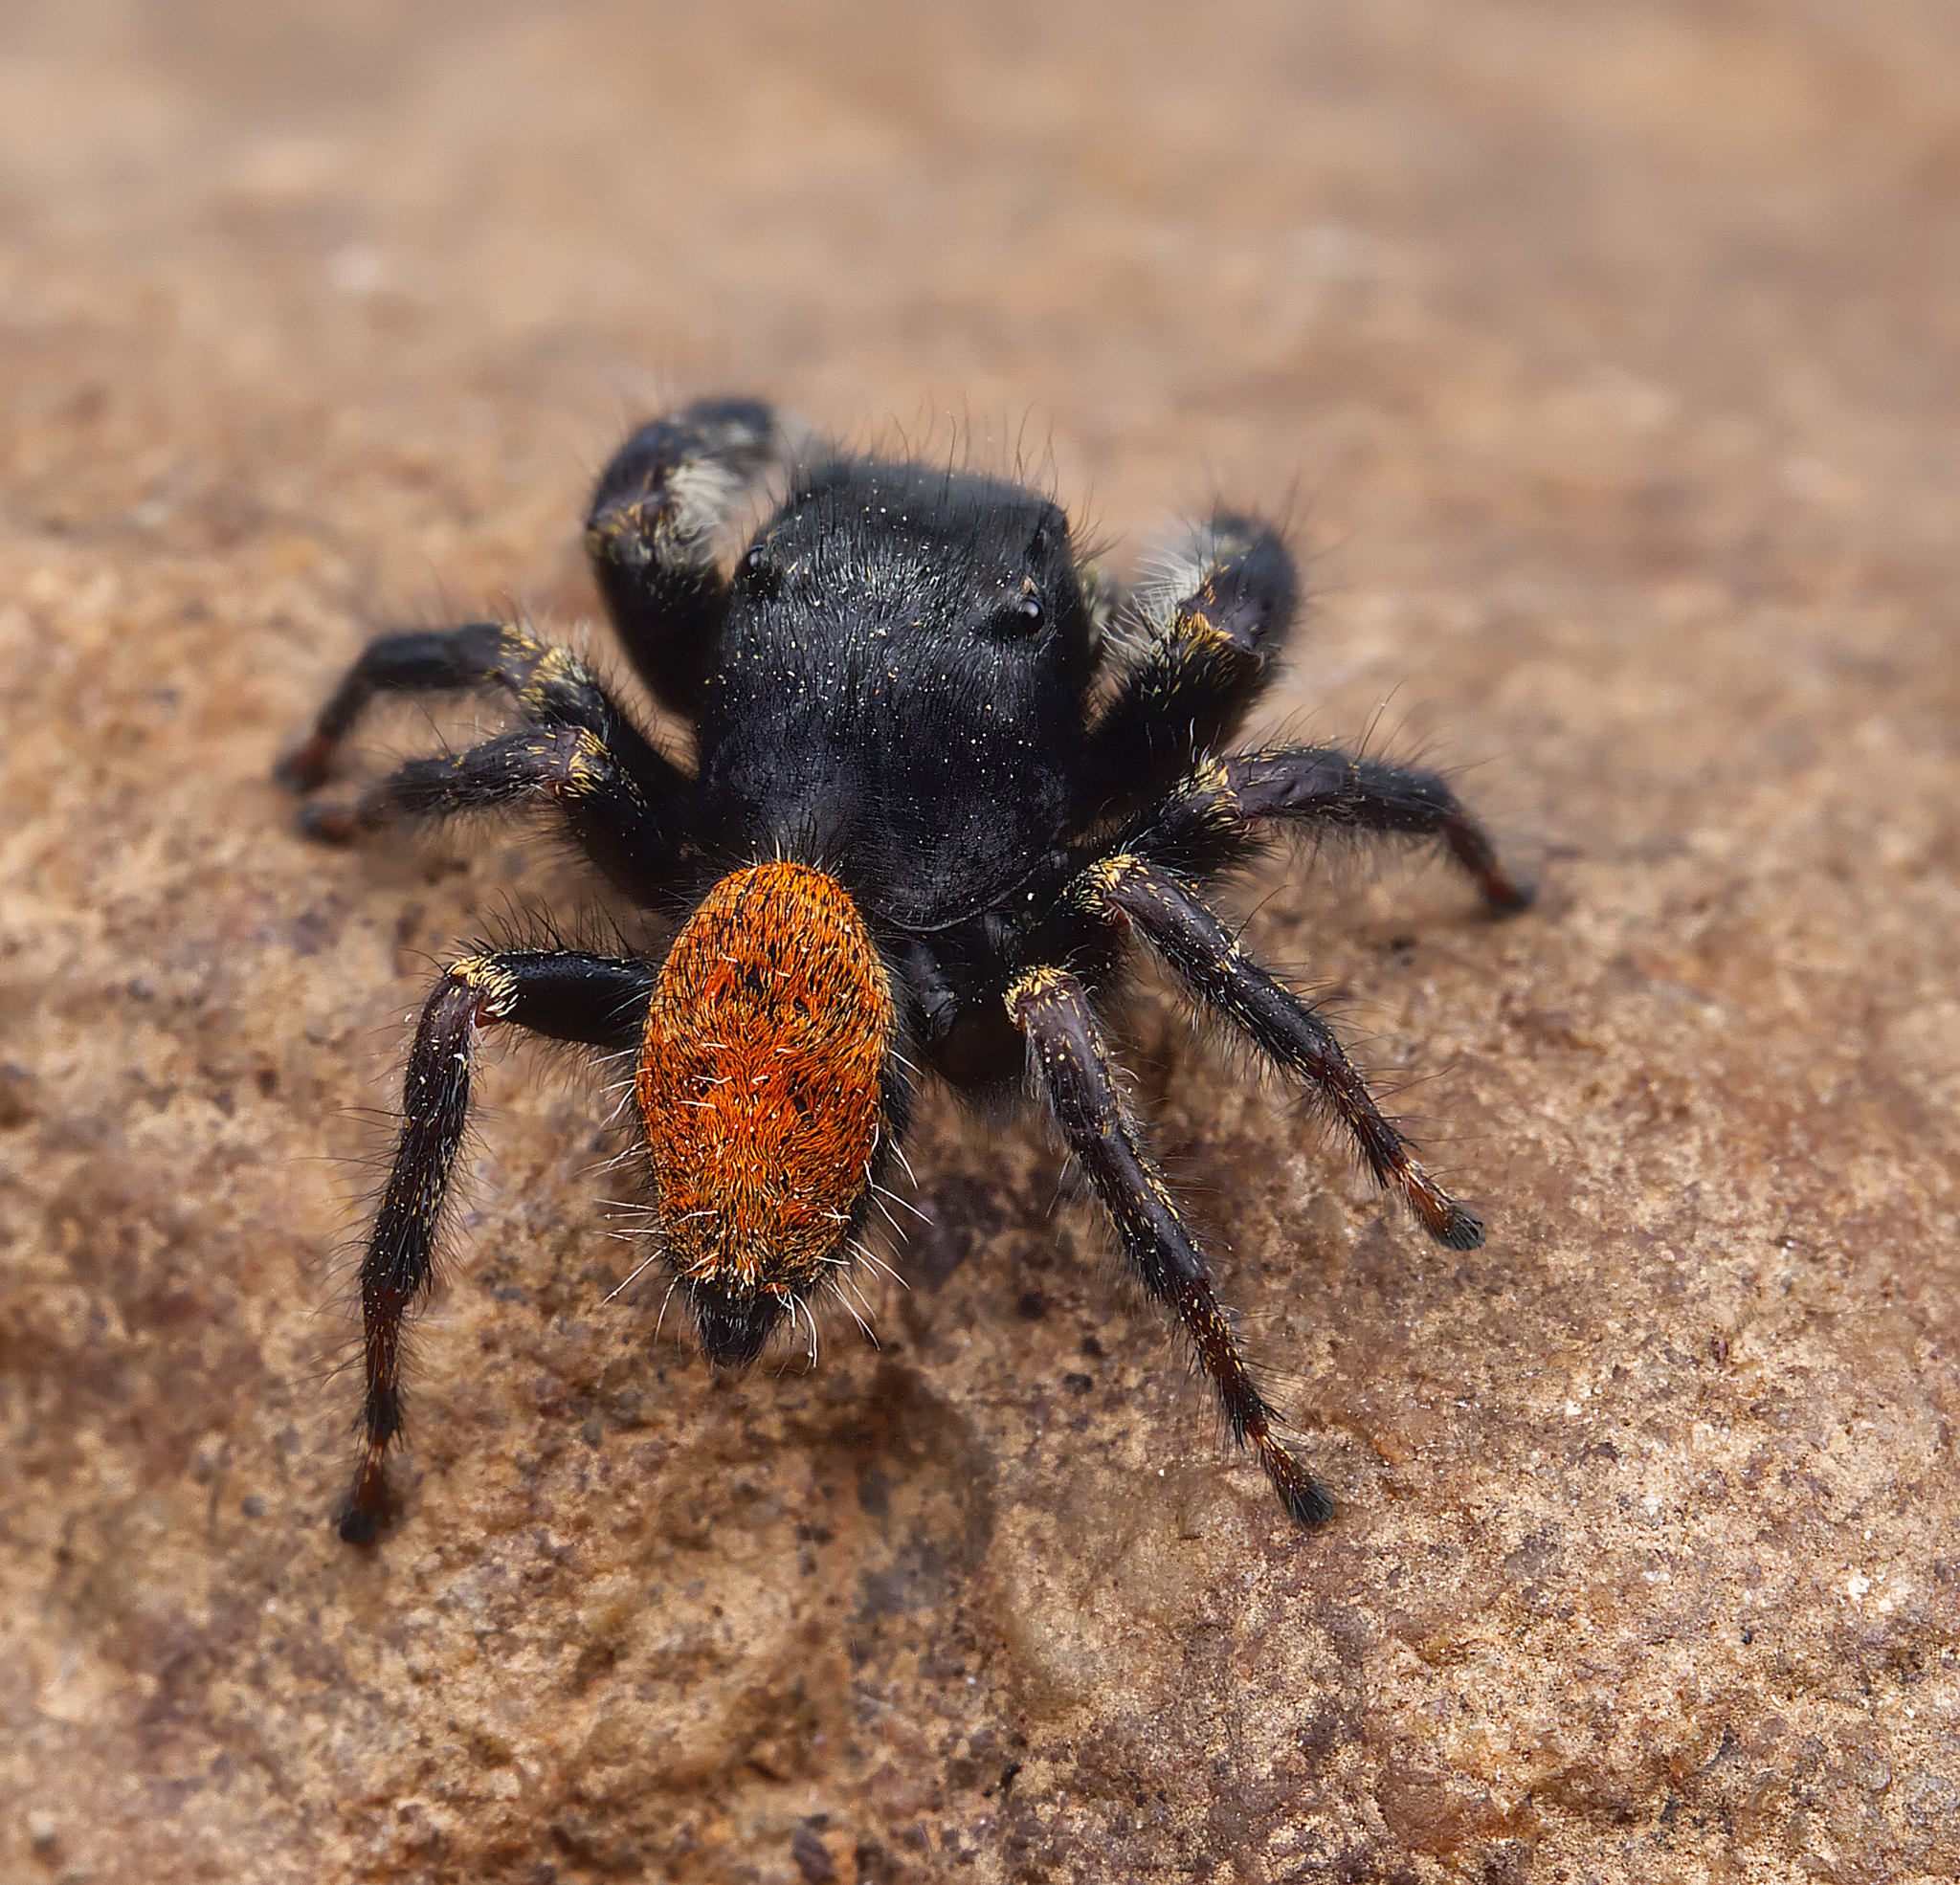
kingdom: Animalia
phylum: Arthropoda
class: Arachnida
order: Araneae
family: Salticidae
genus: Phidippus
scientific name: Phidippus princeps
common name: Grayish jumping spider
